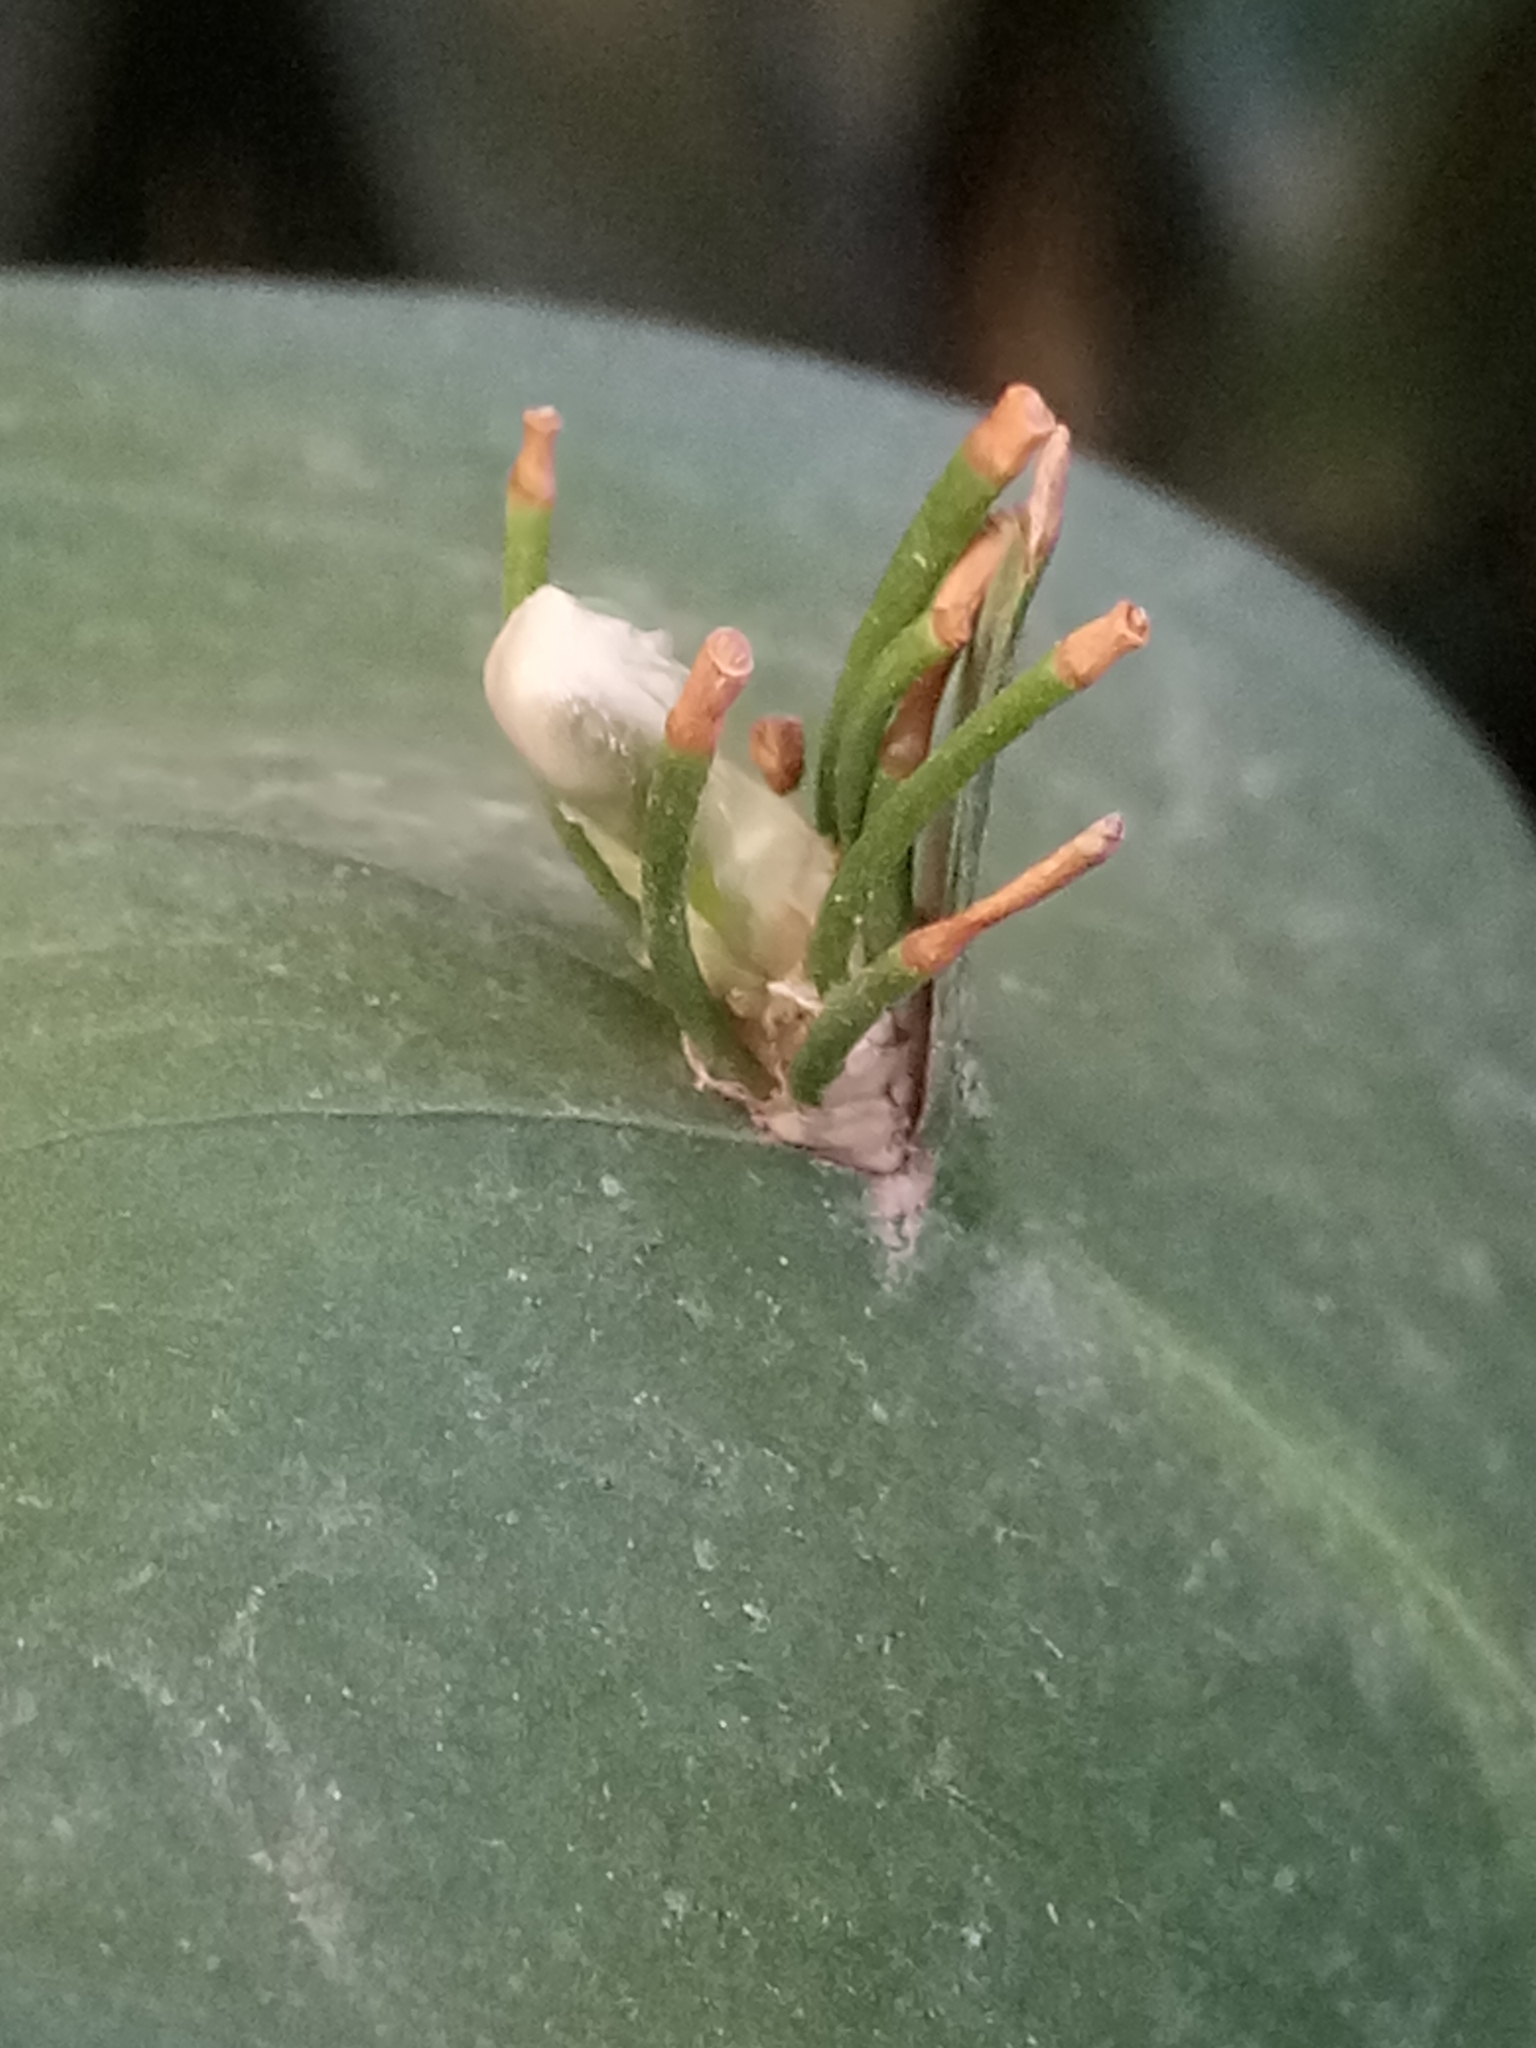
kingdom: Plantae
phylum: Tracheophyta
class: Liliopsida
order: Asparagales
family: Asparagaceae
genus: Ruscus
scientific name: Ruscus hypophyllum
